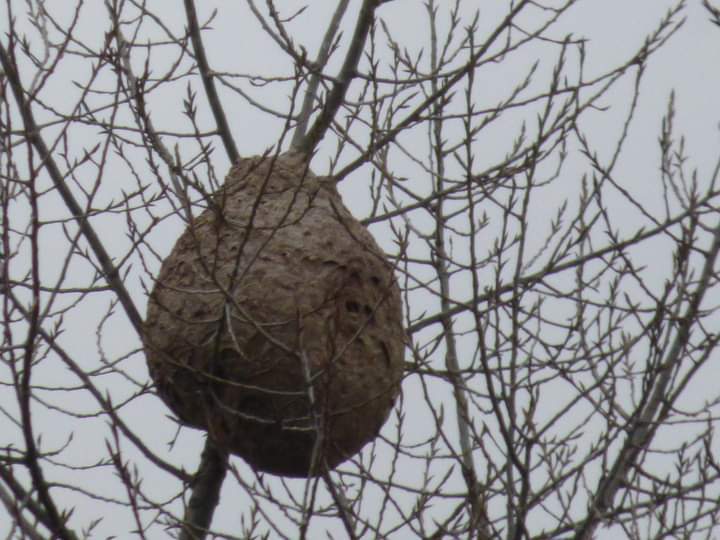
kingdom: Animalia
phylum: Arthropoda
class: Insecta
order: Hymenoptera
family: Vespidae
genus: Vespa
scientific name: Vespa velutina
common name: Asian hornet
